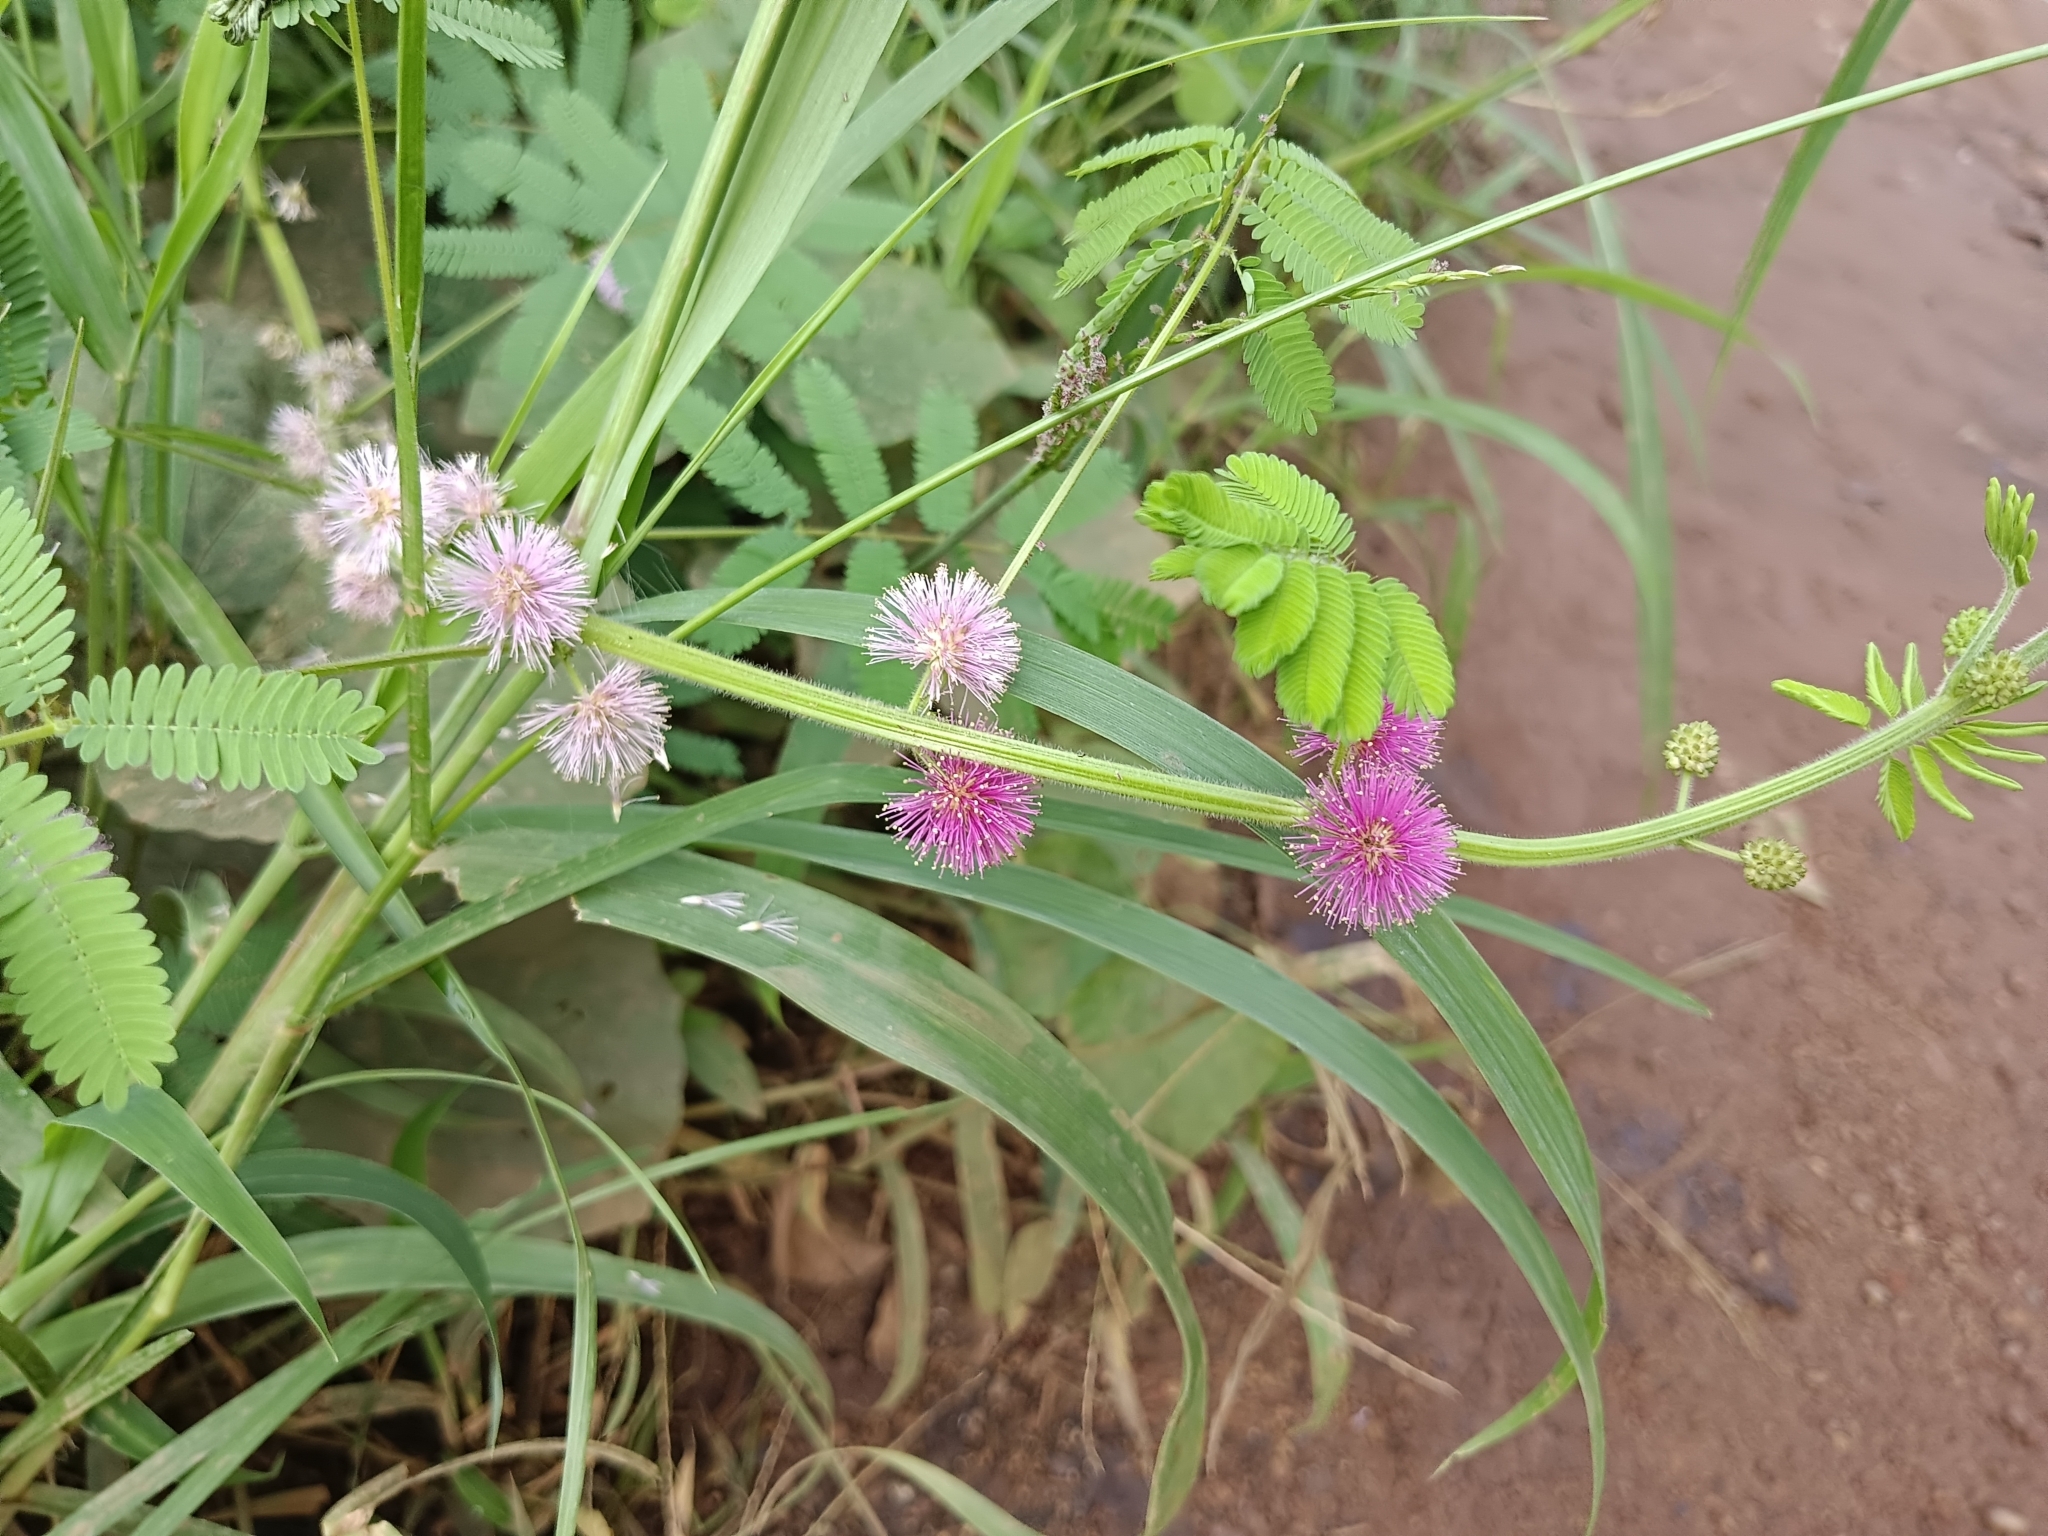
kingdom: Plantae
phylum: Tracheophyta
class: Magnoliopsida
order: Fabales
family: Fabaceae
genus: Mimosa
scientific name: Mimosa diplotricha
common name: Giant sensitive-plant
